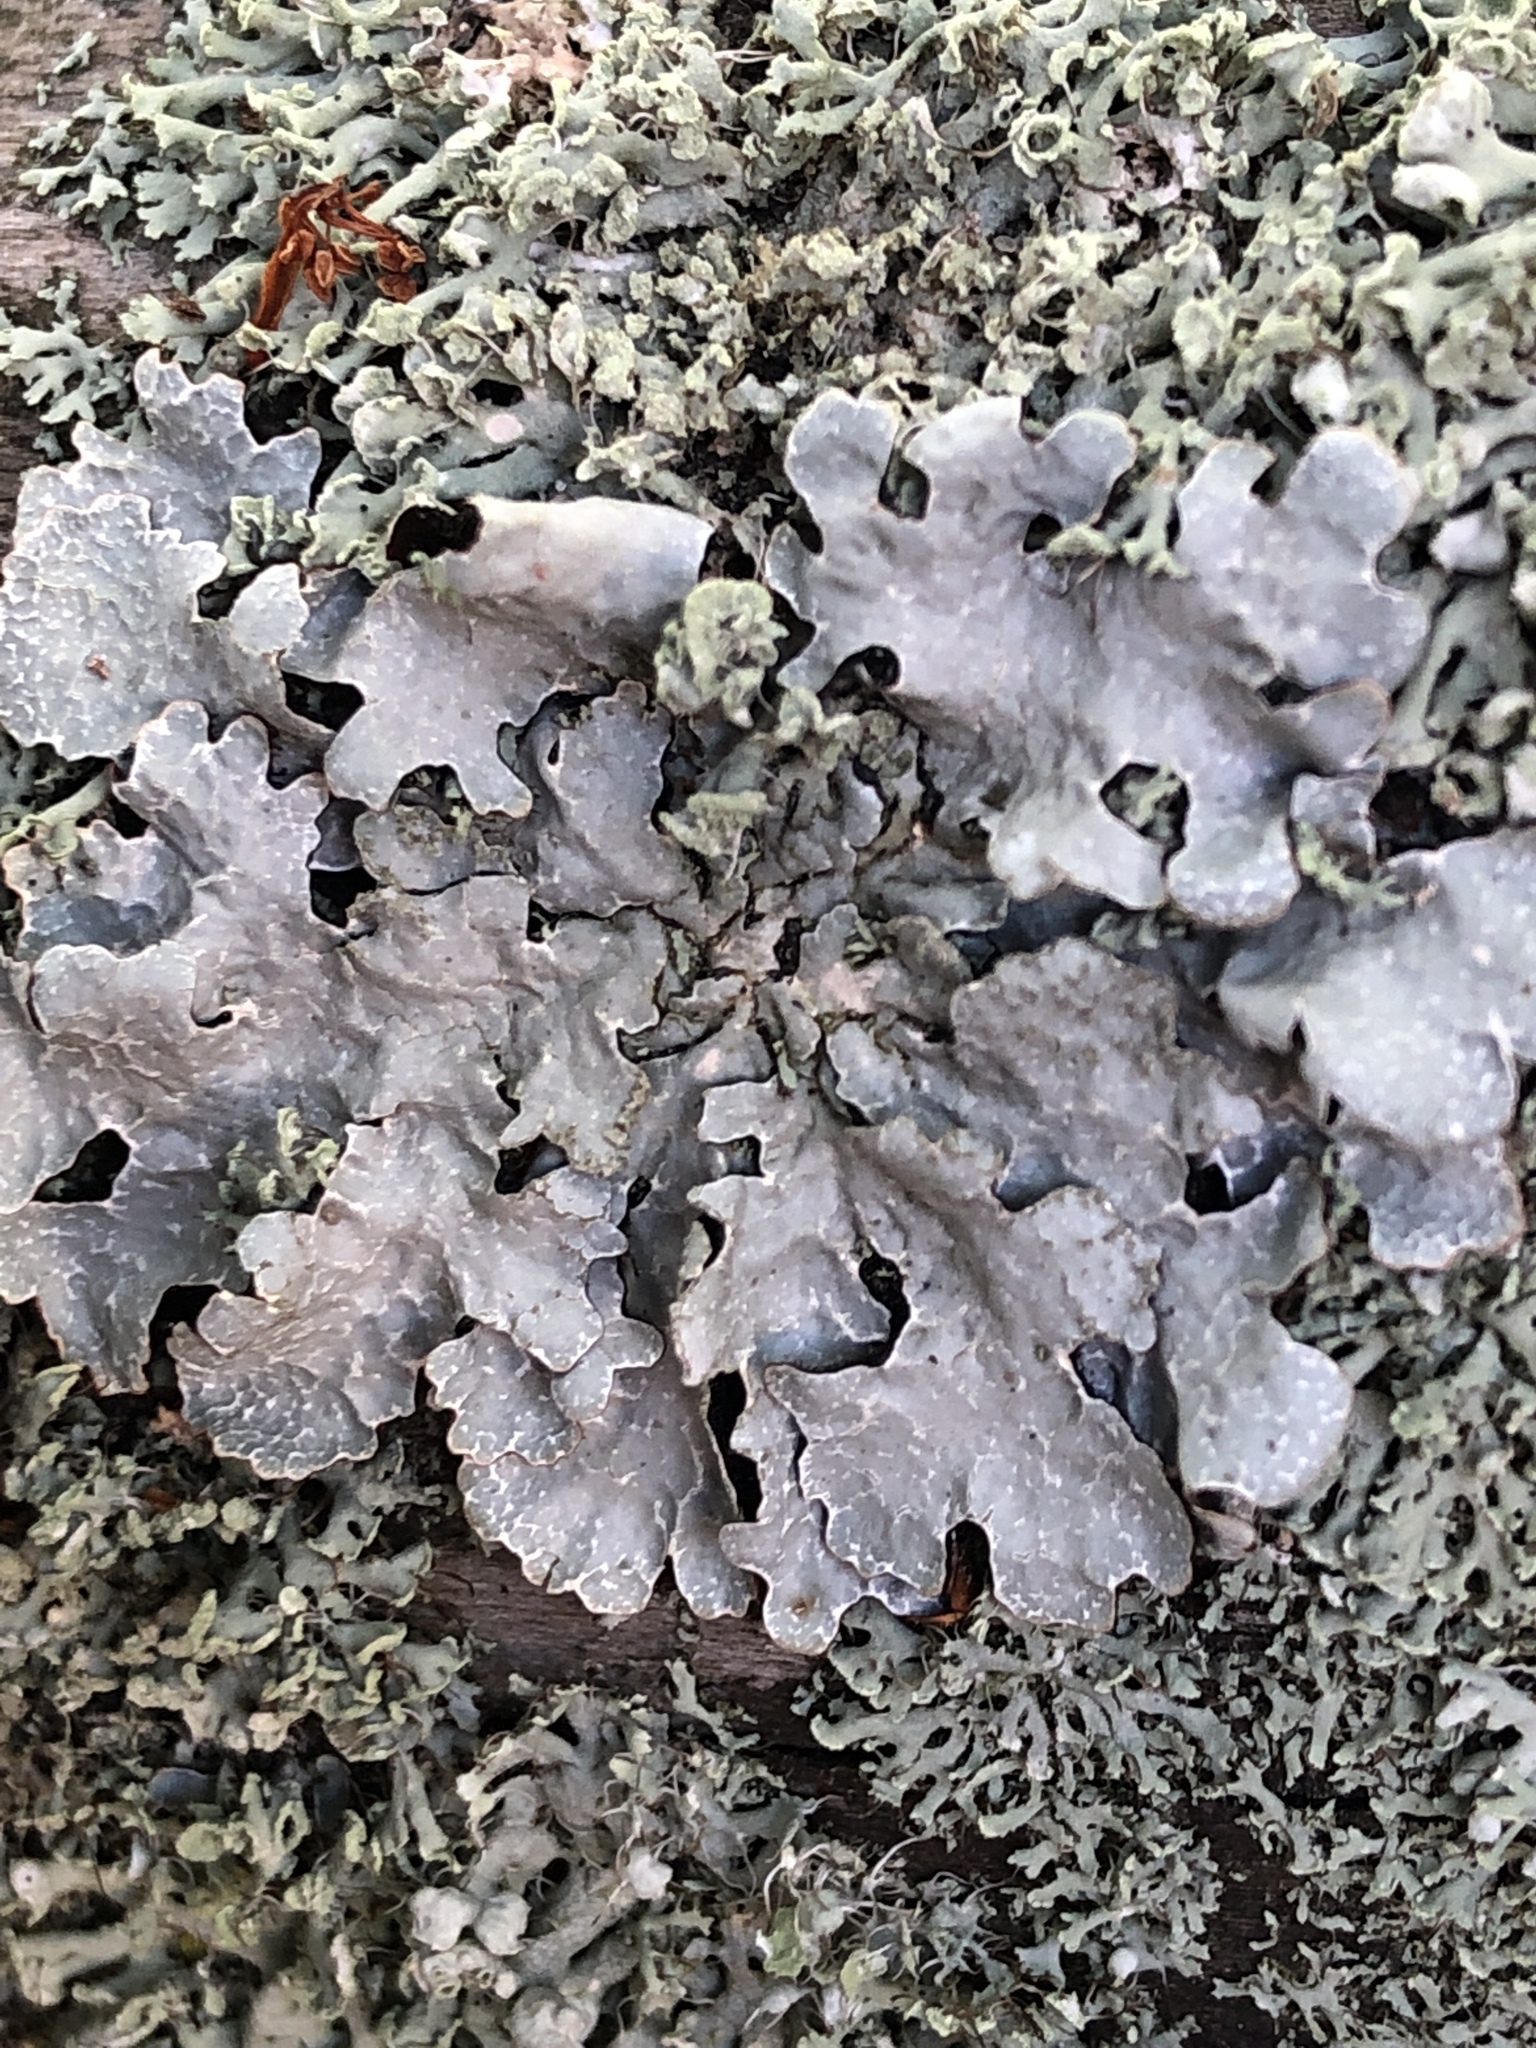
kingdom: Fungi
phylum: Ascomycota
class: Lecanoromycetes
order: Lecanorales
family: Parmeliaceae
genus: Parmelia
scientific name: Parmelia sulcata
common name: Netted shield lichen
